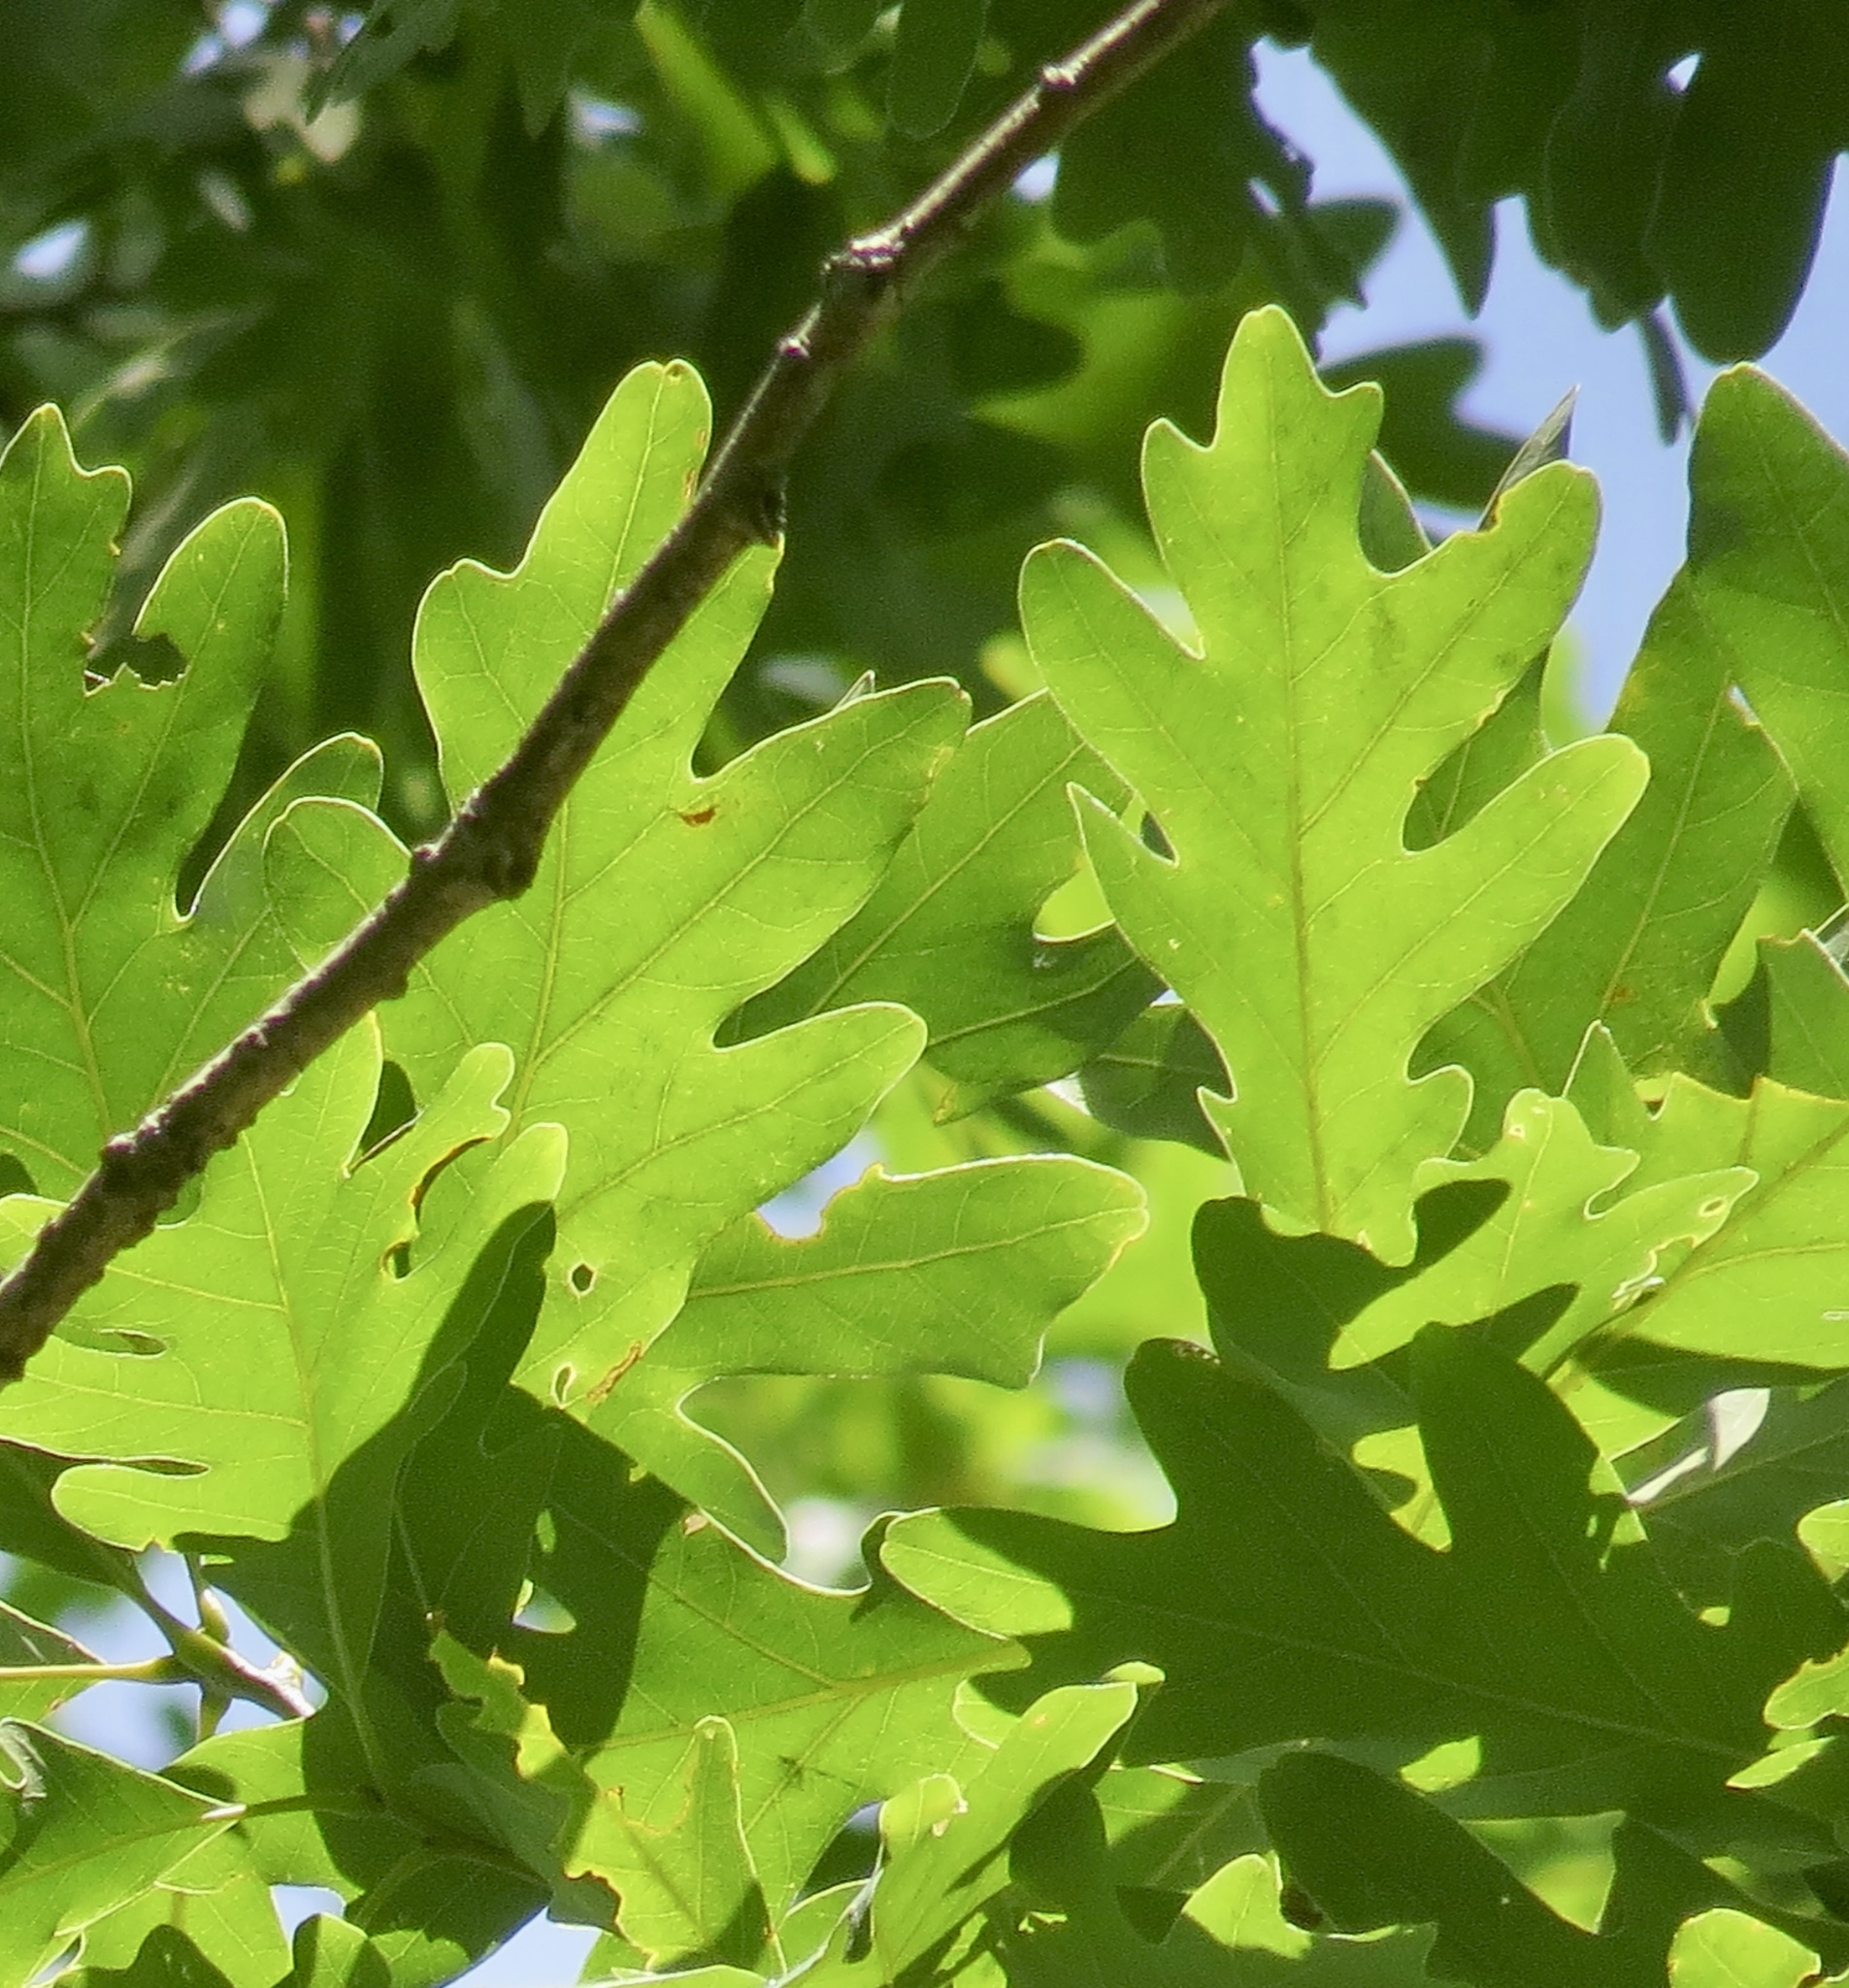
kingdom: Plantae
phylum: Tracheophyta
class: Magnoliopsida
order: Fagales
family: Fagaceae
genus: Quercus
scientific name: Quercus alba
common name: White oak
